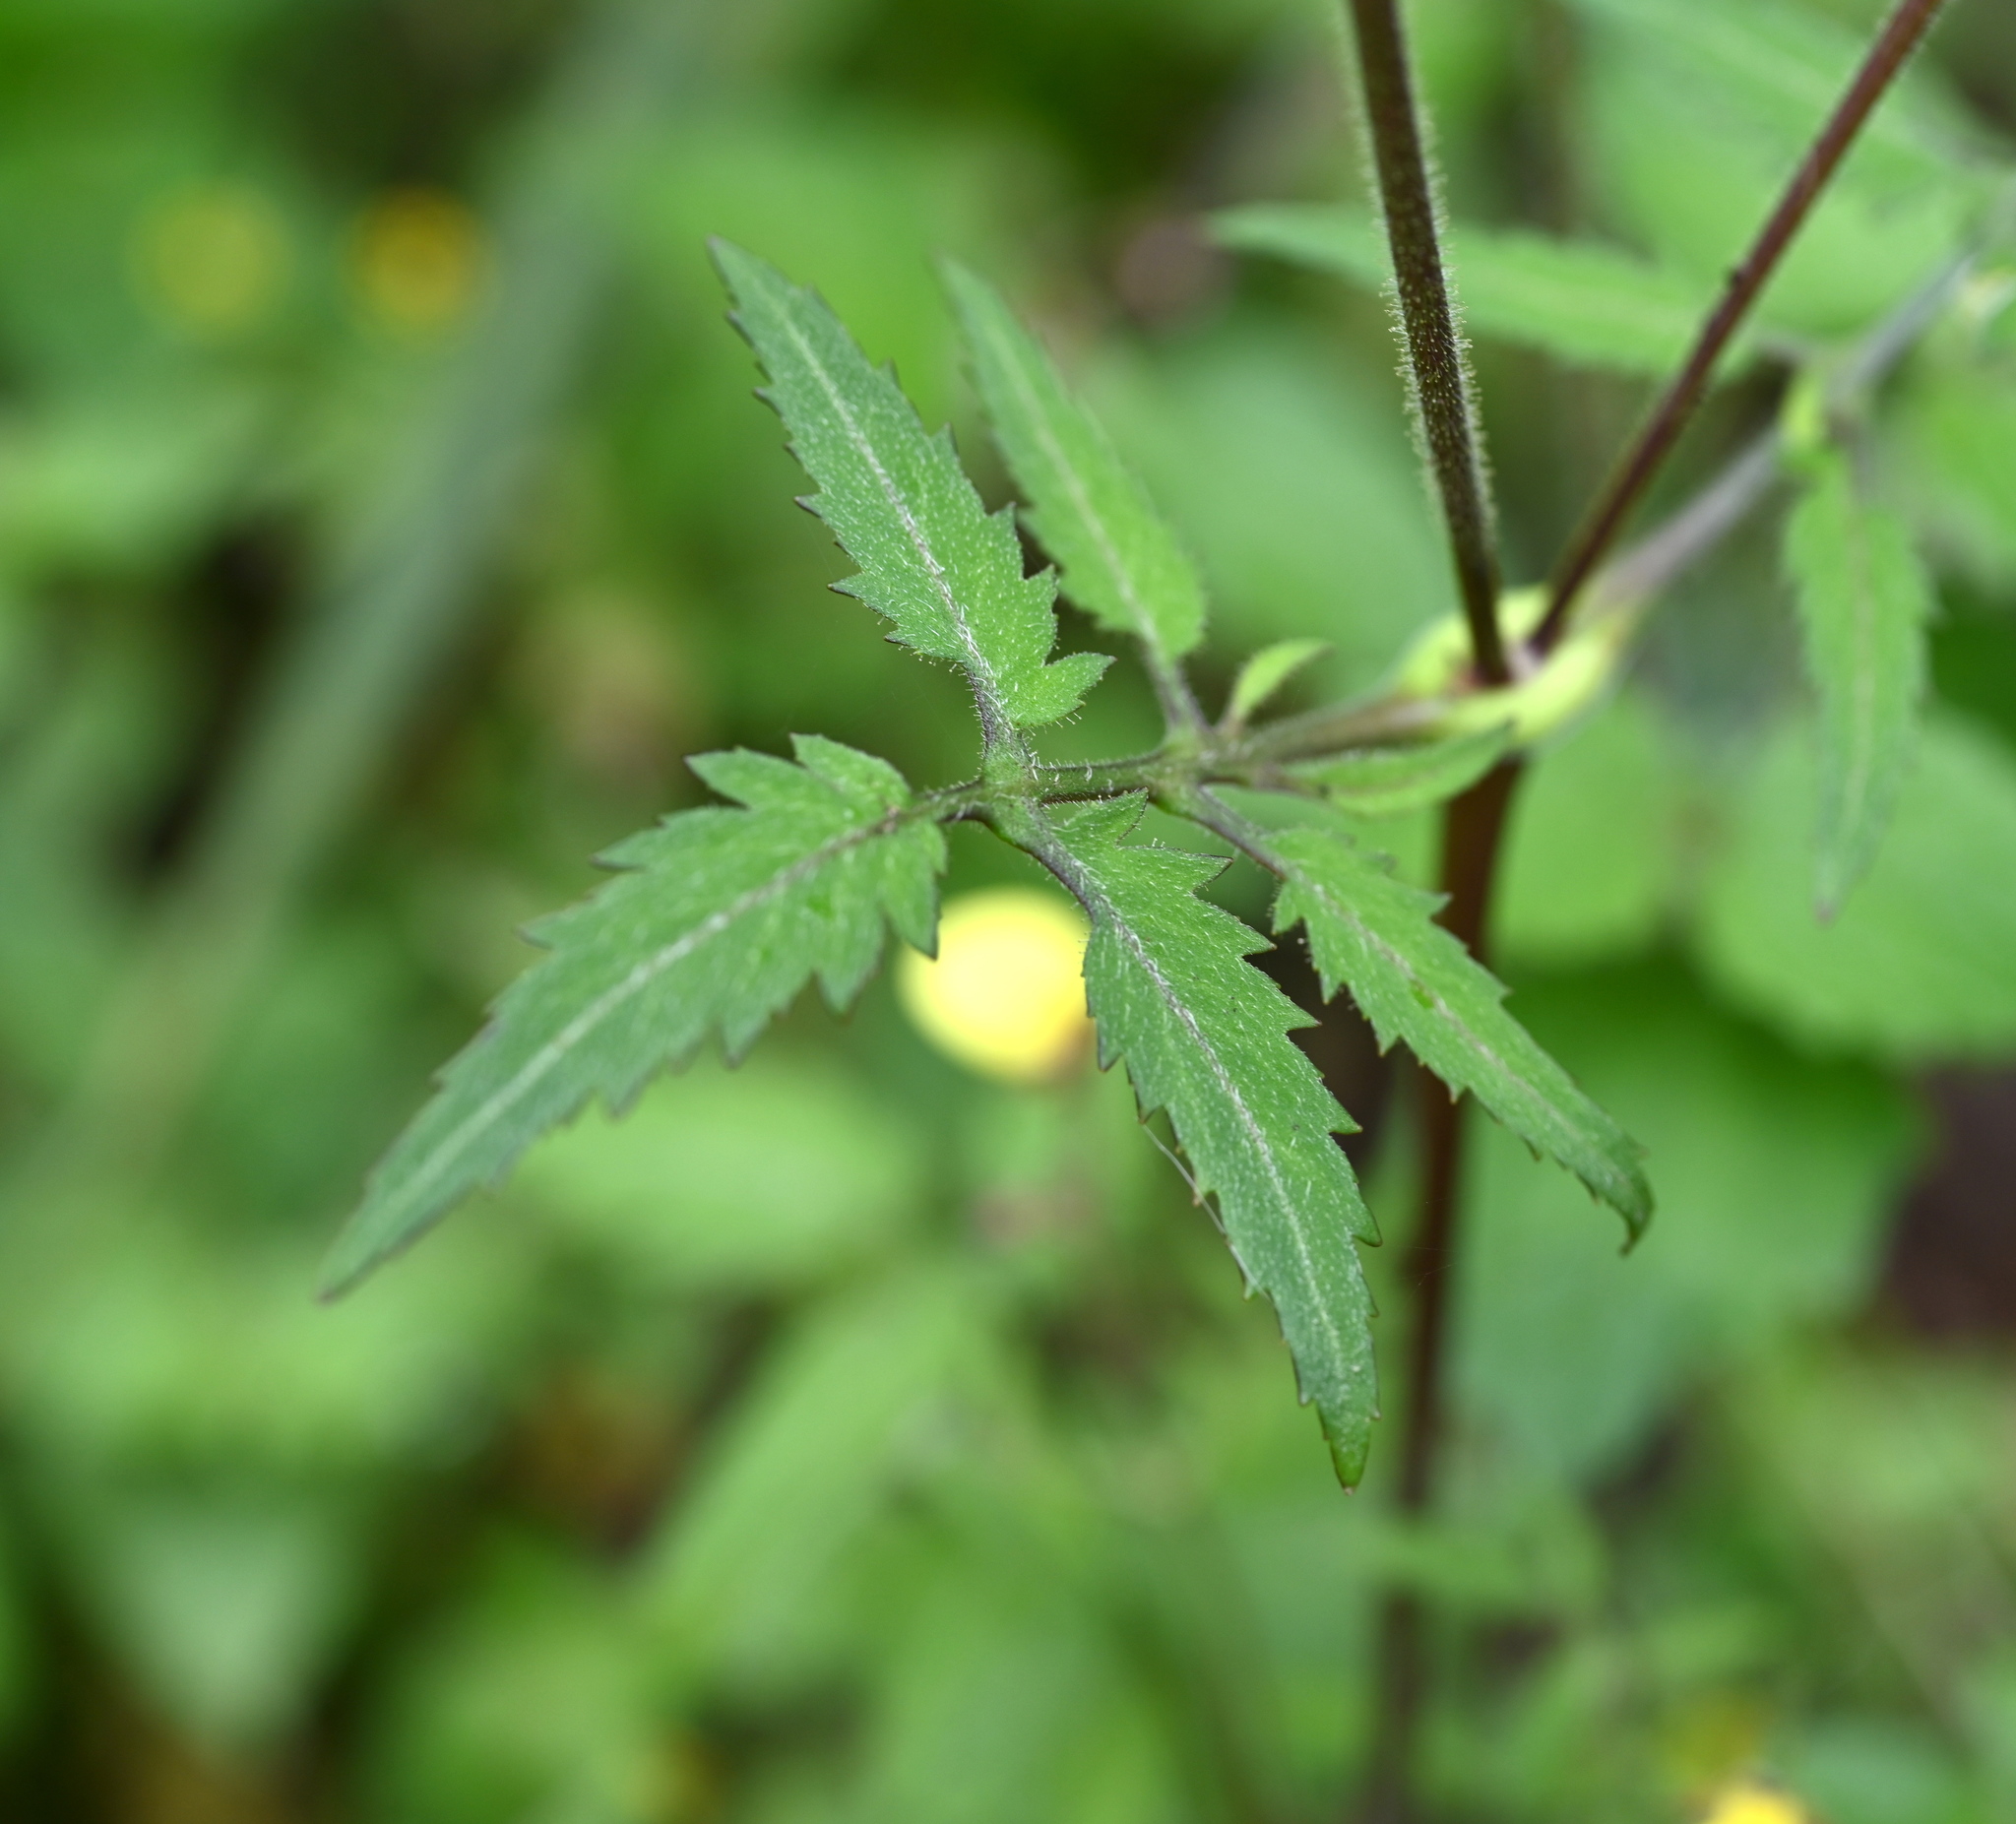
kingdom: Plantae
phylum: Tracheophyta
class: Magnoliopsida
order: Lamiales
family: Calceolariaceae
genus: Calceolaria
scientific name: Calceolaria tripartita
